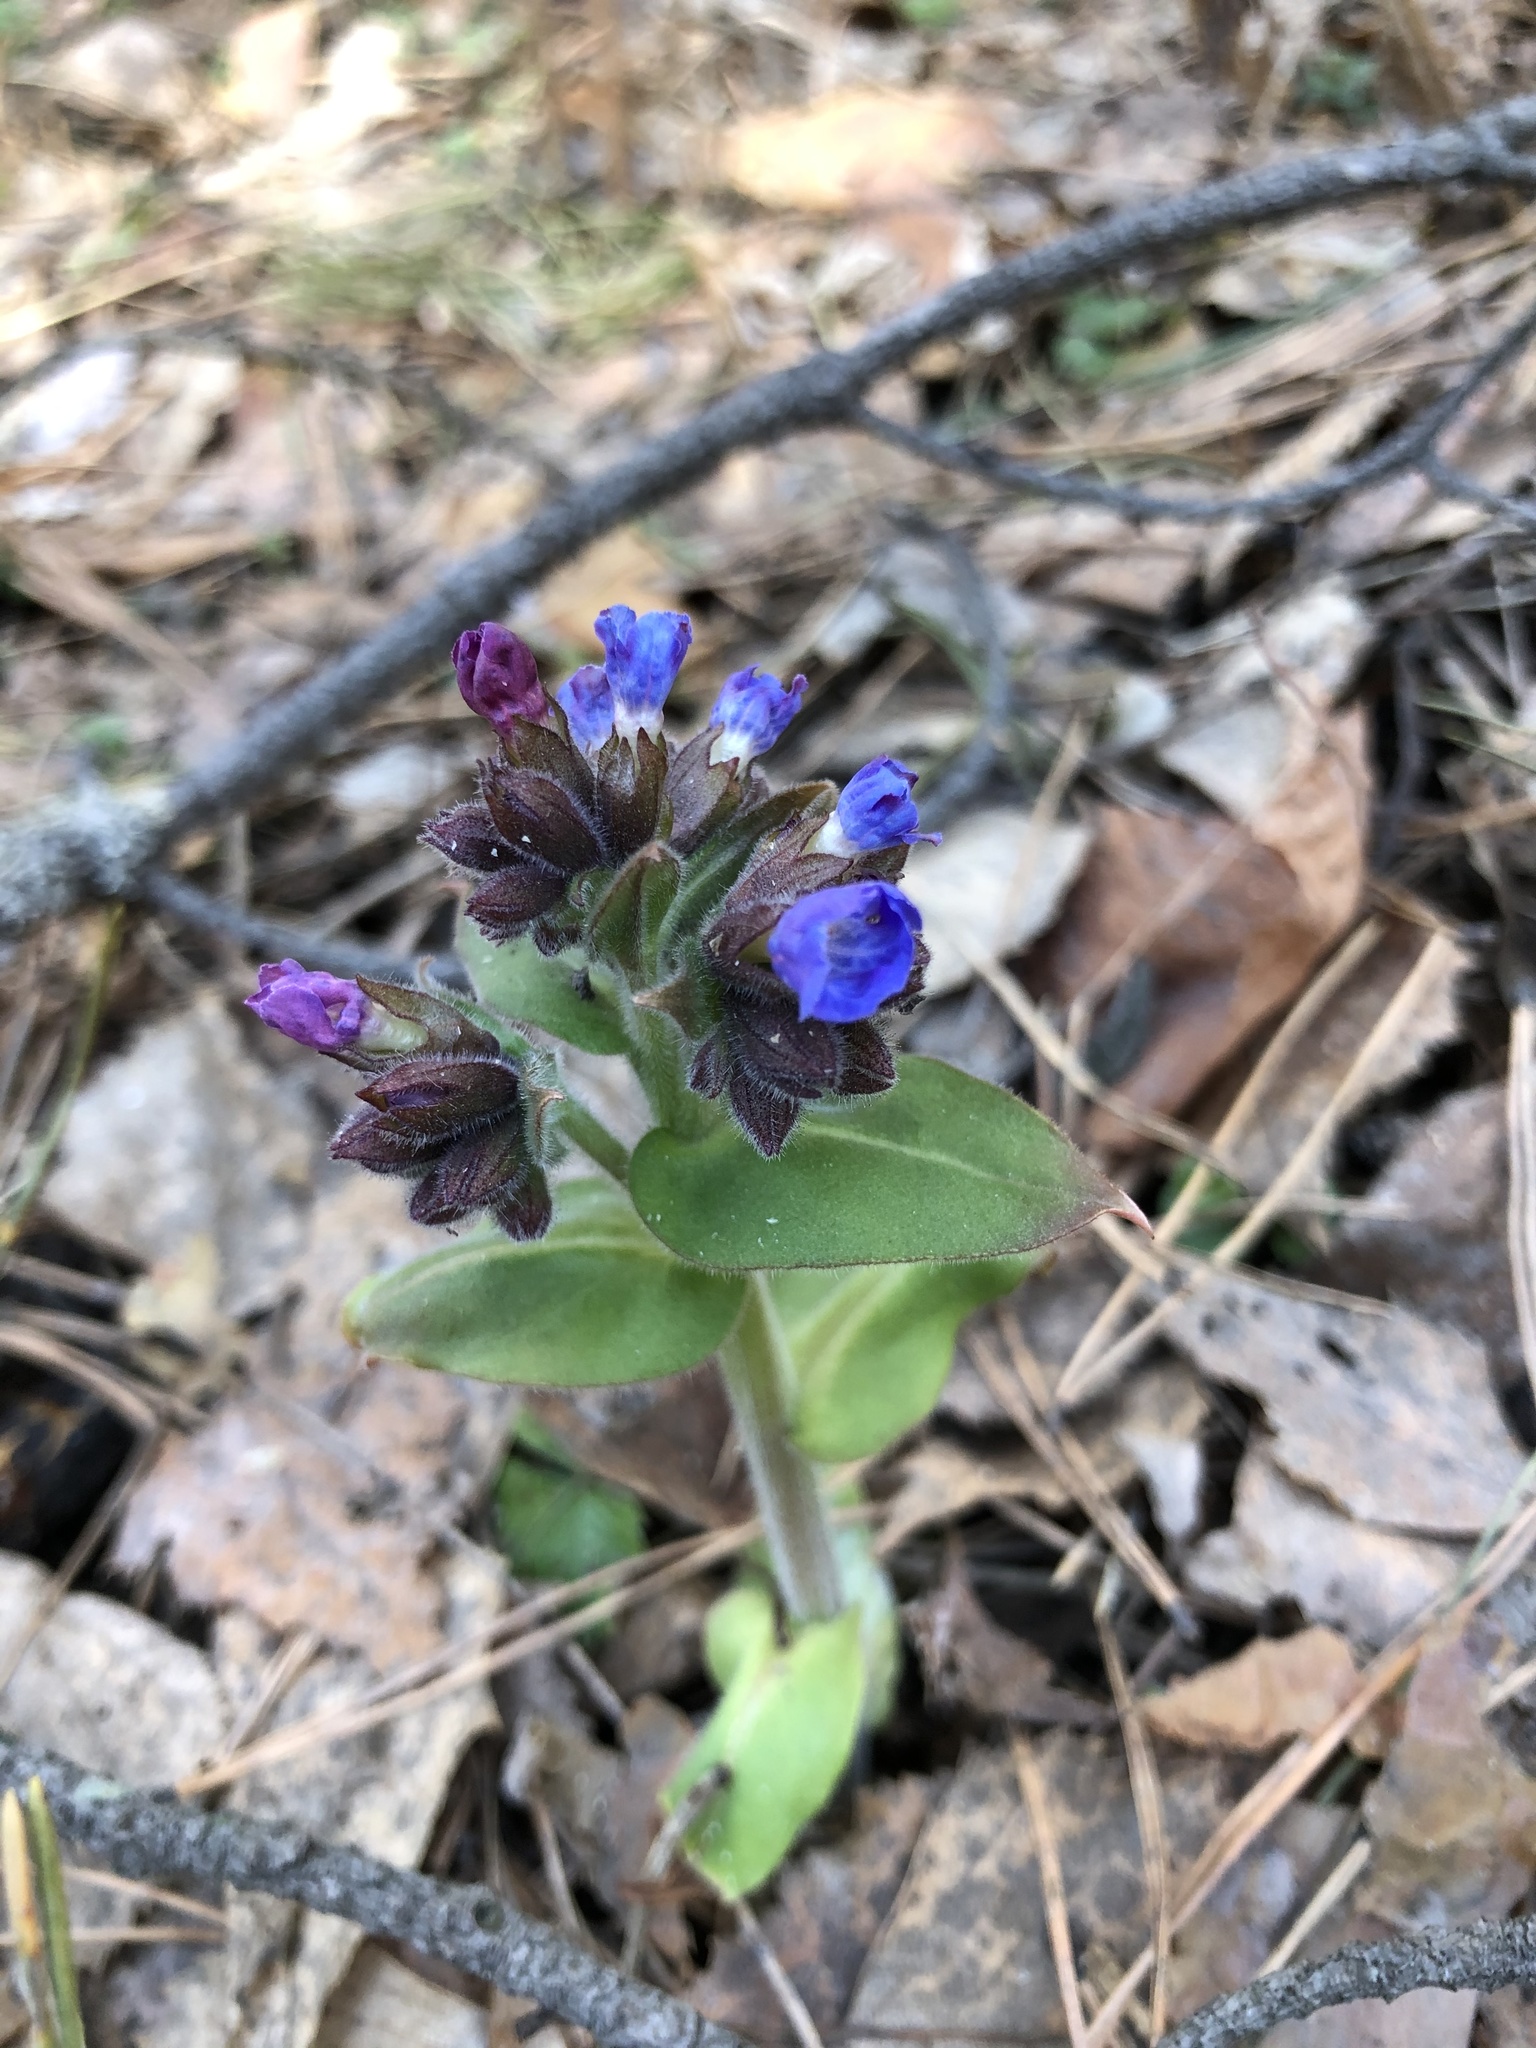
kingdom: Plantae
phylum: Tracheophyta
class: Magnoliopsida
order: Boraginales
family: Boraginaceae
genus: Pulmonaria
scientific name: Pulmonaria mollis
